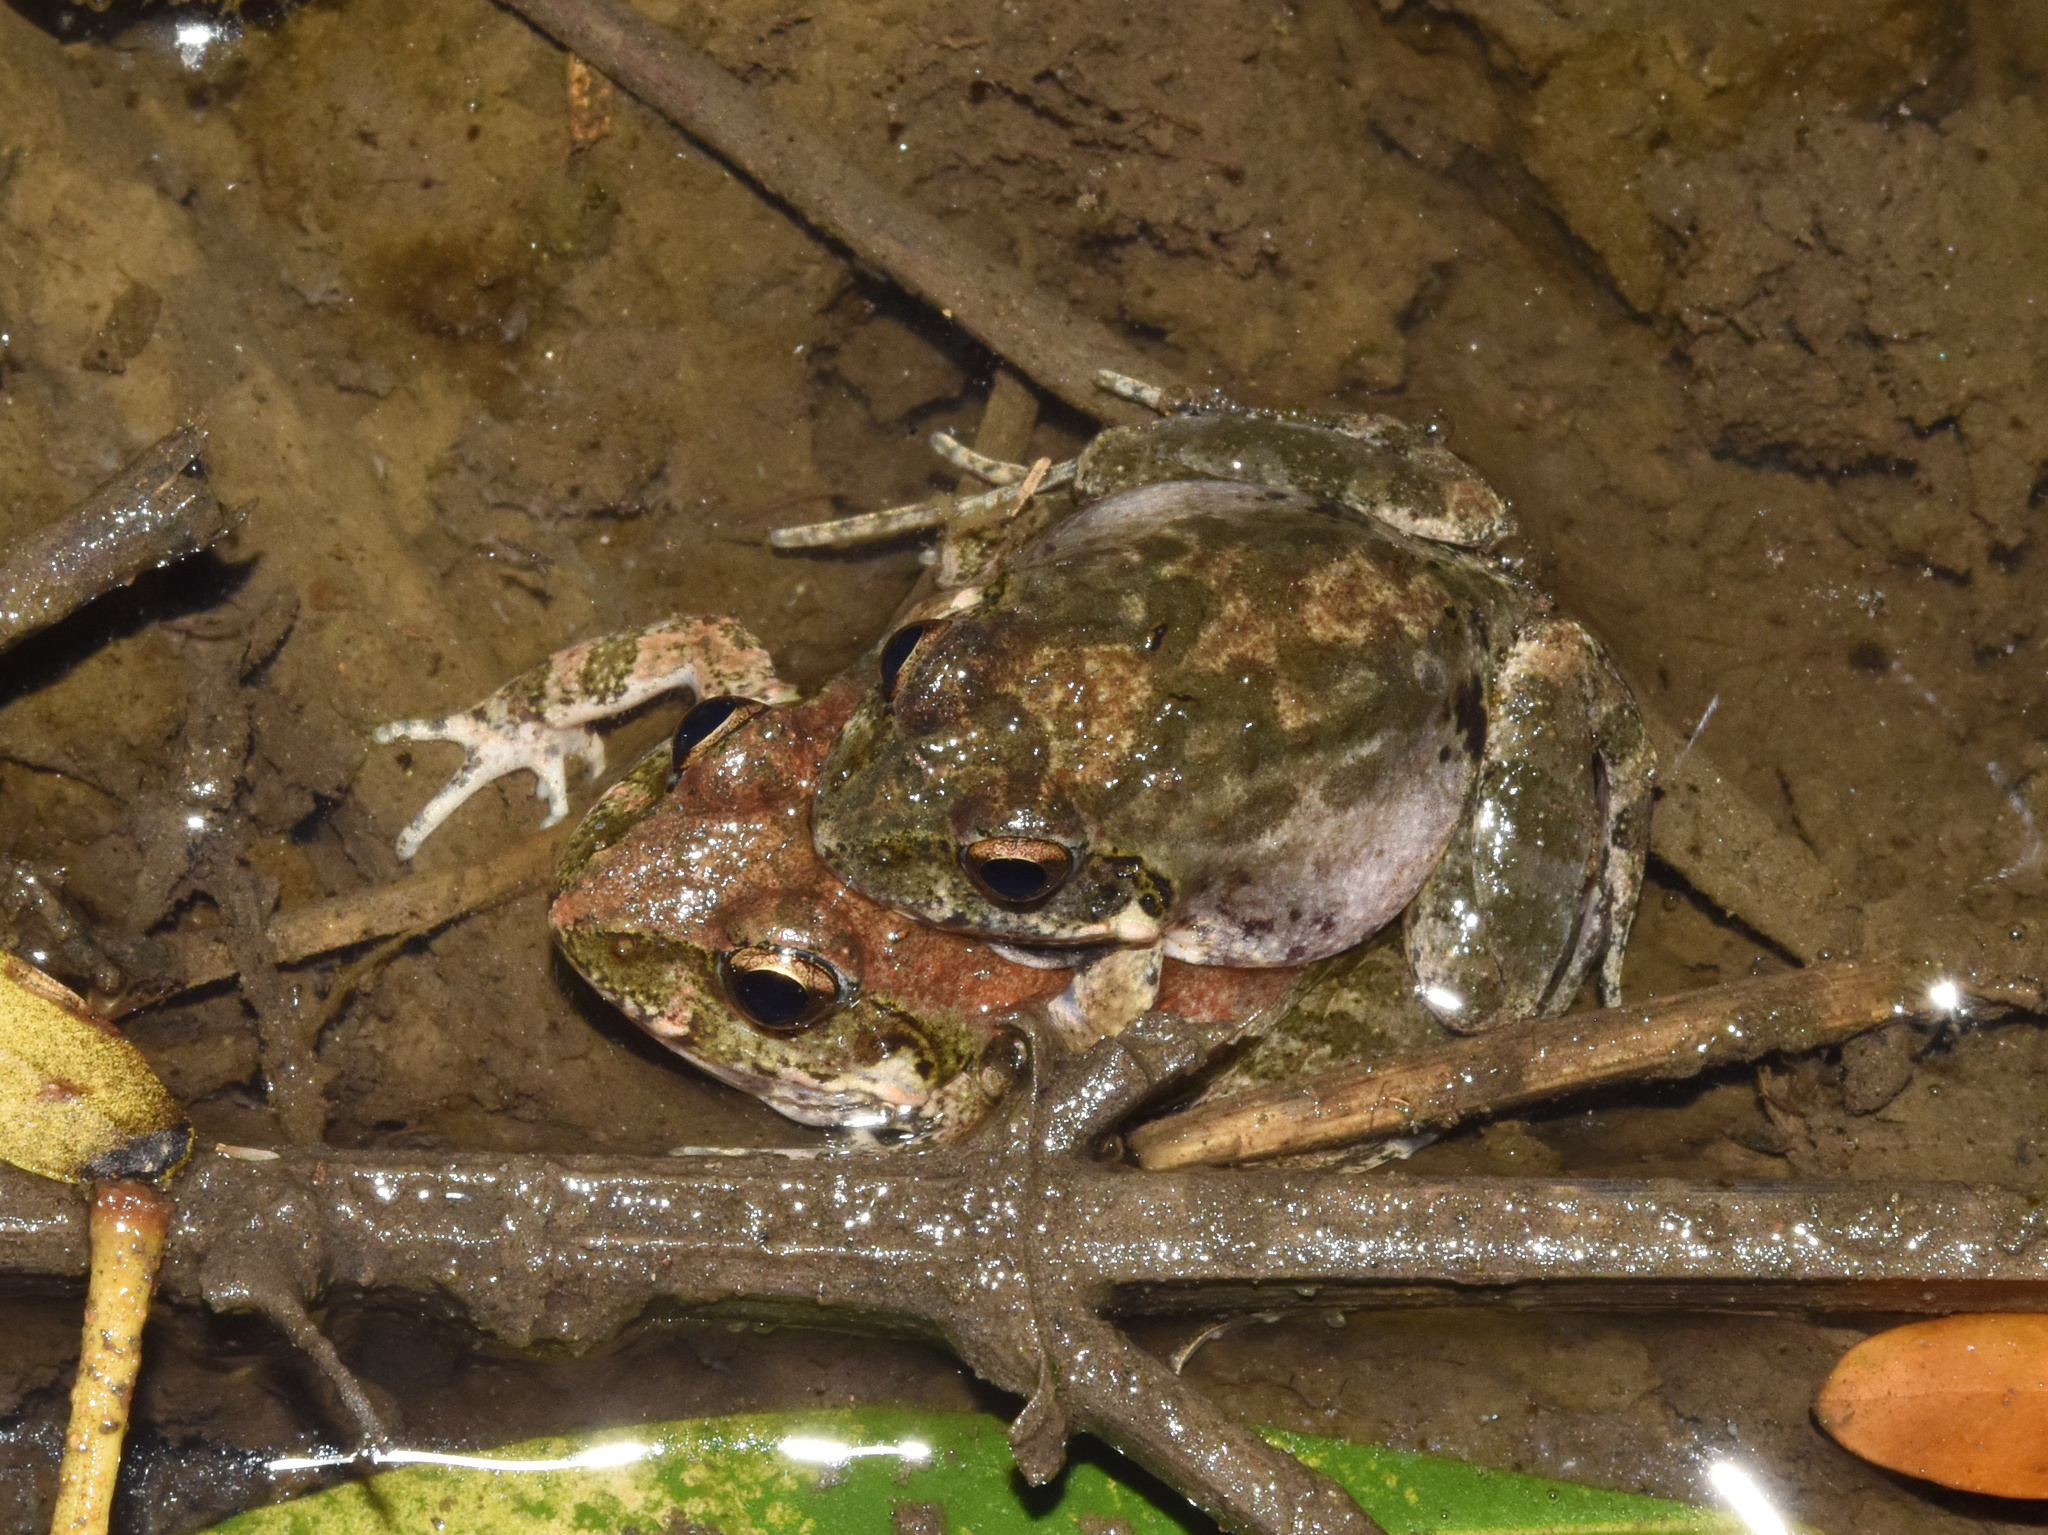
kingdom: Animalia
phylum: Chordata
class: Amphibia
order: Anura
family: Pyxicephalidae
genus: Tomopterna
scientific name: Tomopterna natalensis
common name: Natal sand frog
